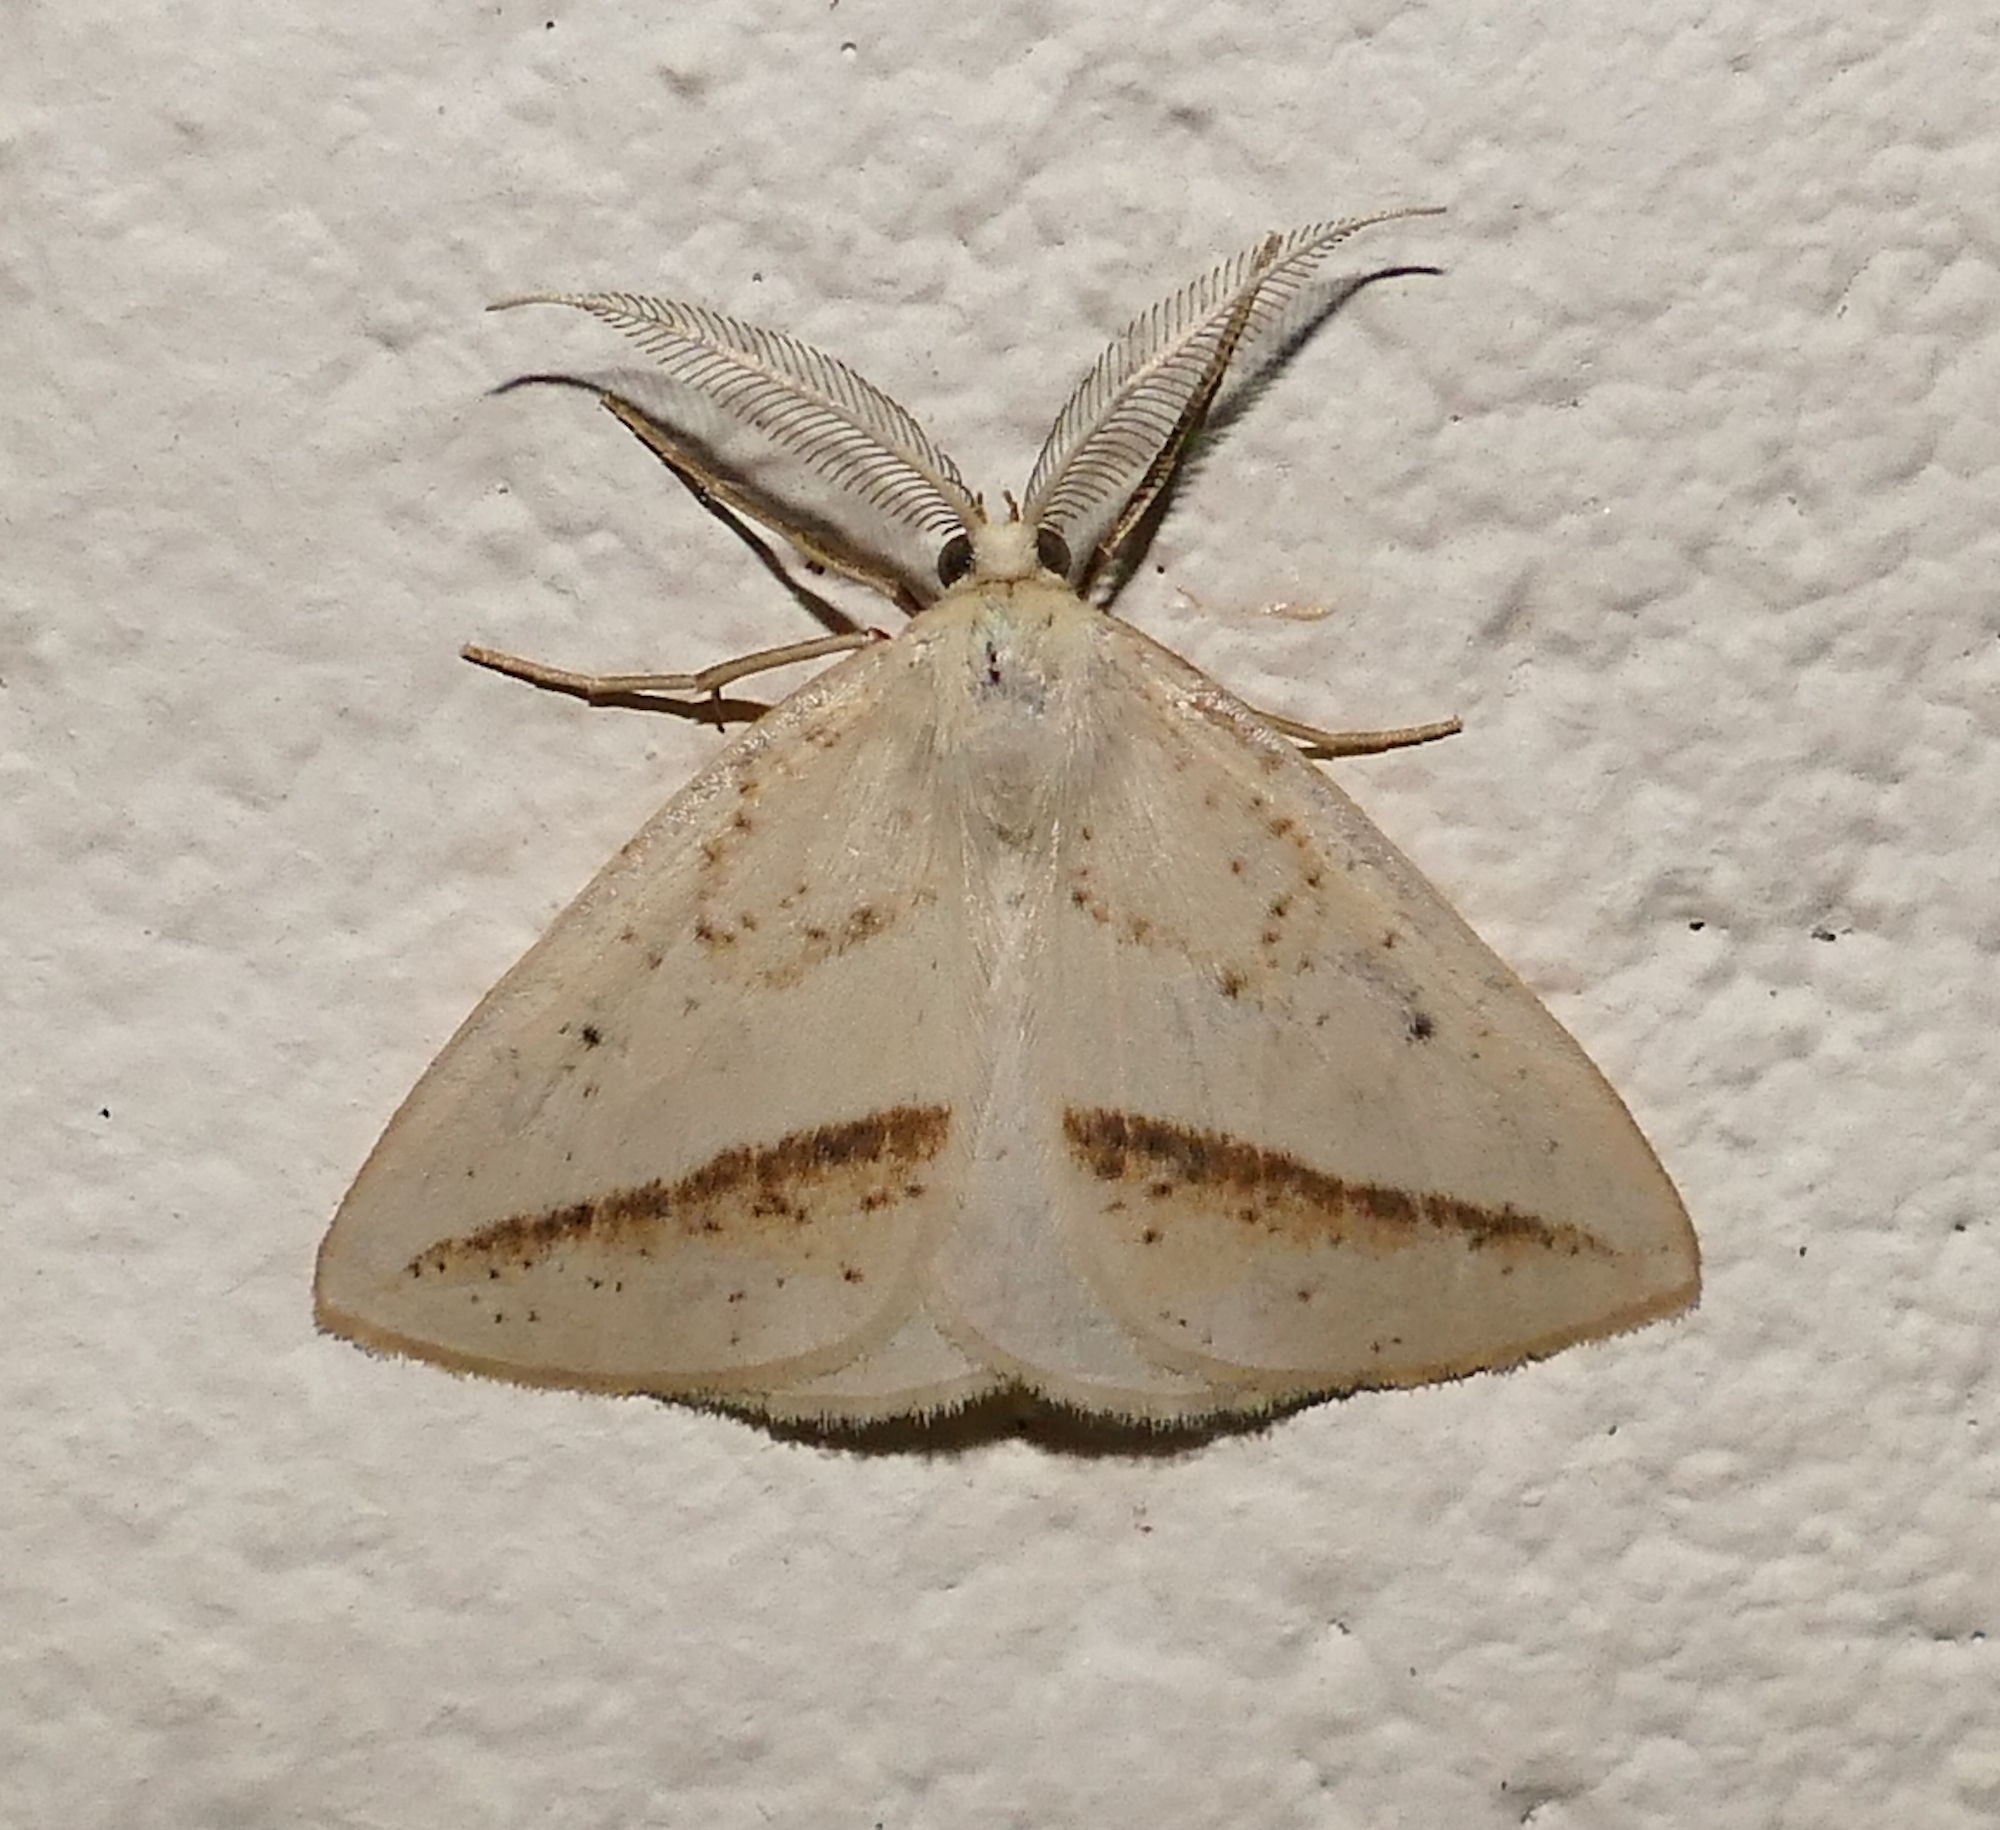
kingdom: Animalia
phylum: Arthropoda
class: Insecta
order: Lepidoptera
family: Geometridae
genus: Lychnosea
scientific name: Lychnosea intermicata
